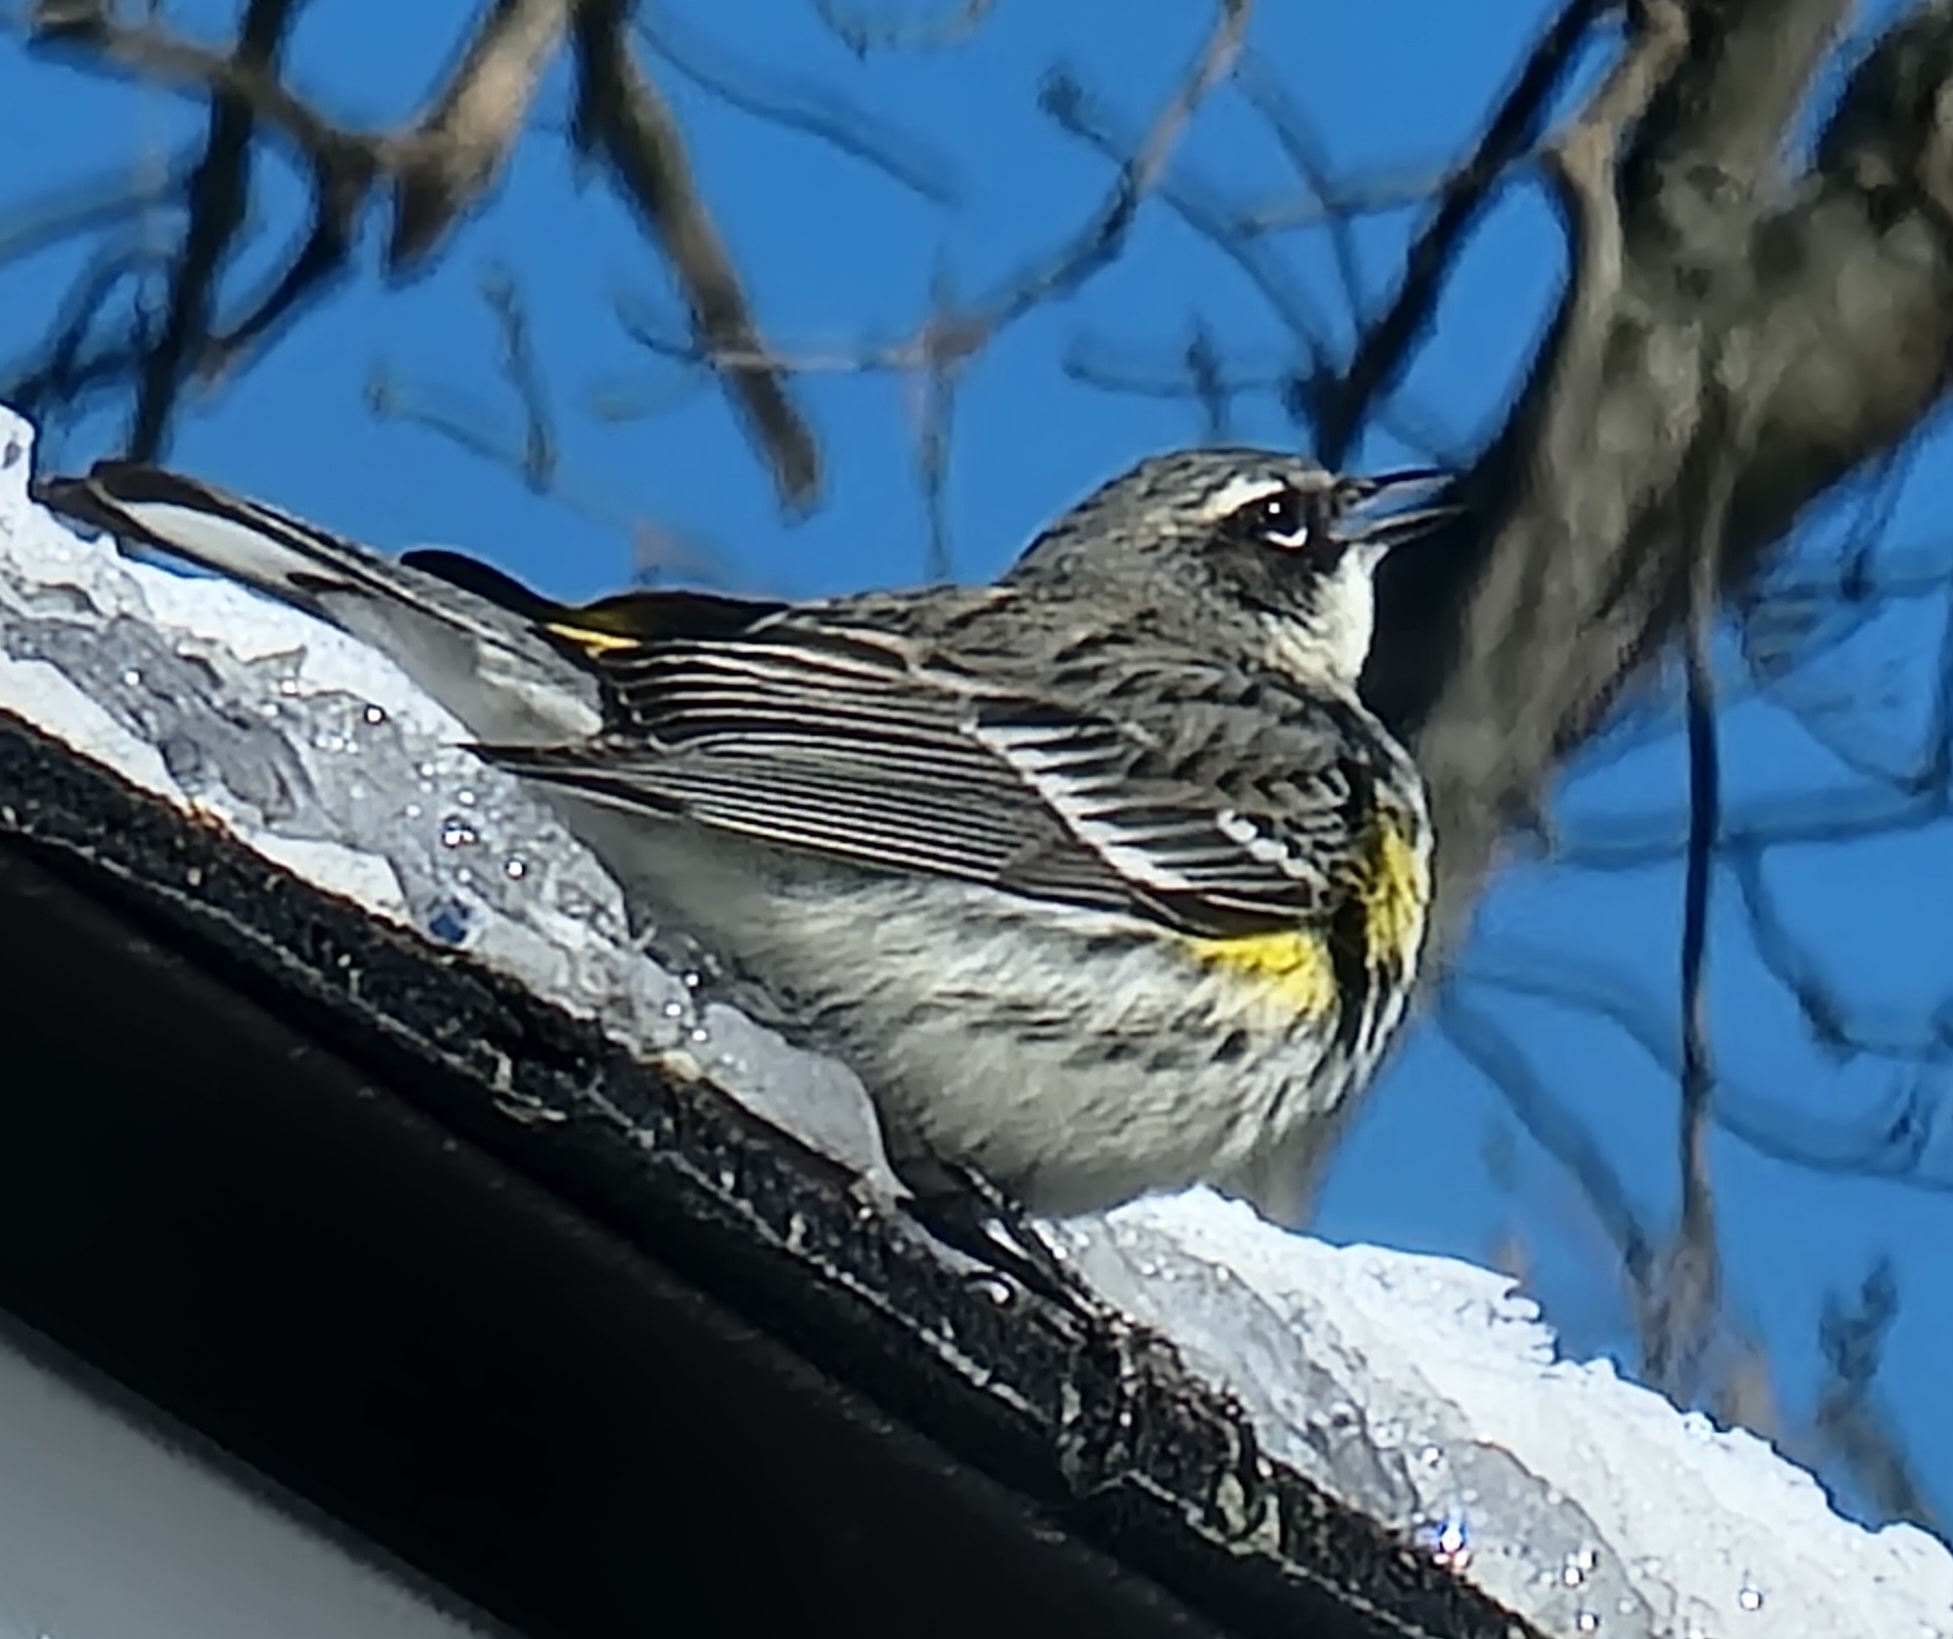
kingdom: Animalia
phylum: Chordata
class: Aves
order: Passeriformes
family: Parulidae
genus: Setophaga
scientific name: Setophaga coronata
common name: Myrtle warbler
